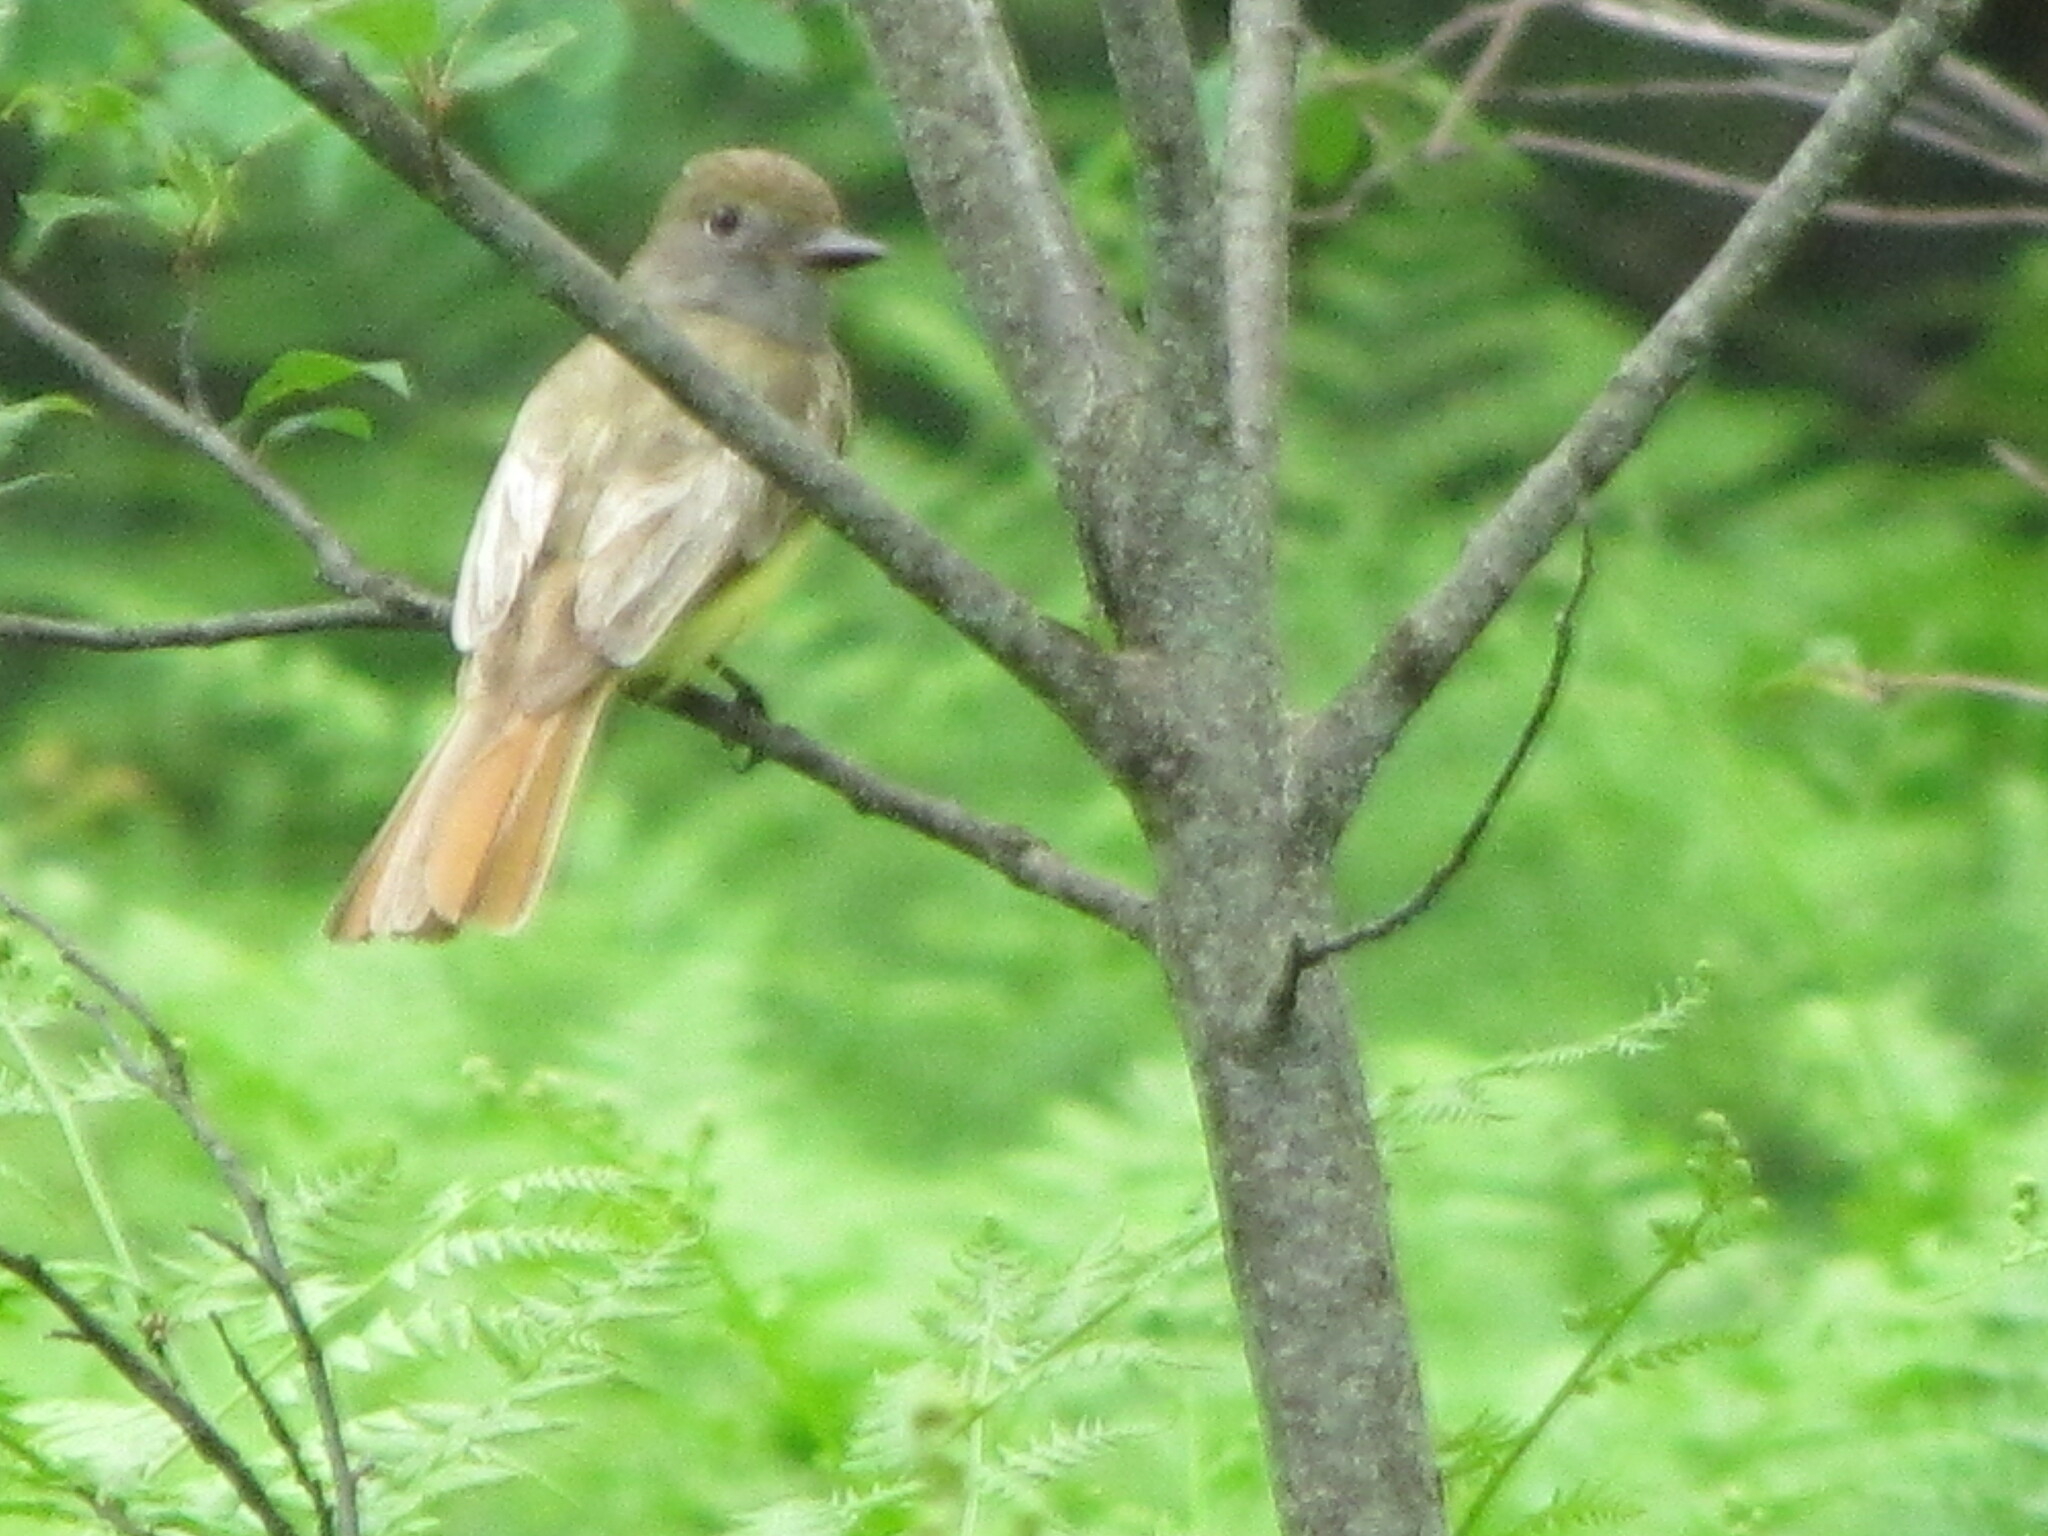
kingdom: Animalia
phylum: Chordata
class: Aves
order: Passeriformes
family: Tyrannidae
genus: Myiarchus
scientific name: Myiarchus crinitus
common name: Great crested flycatcher
